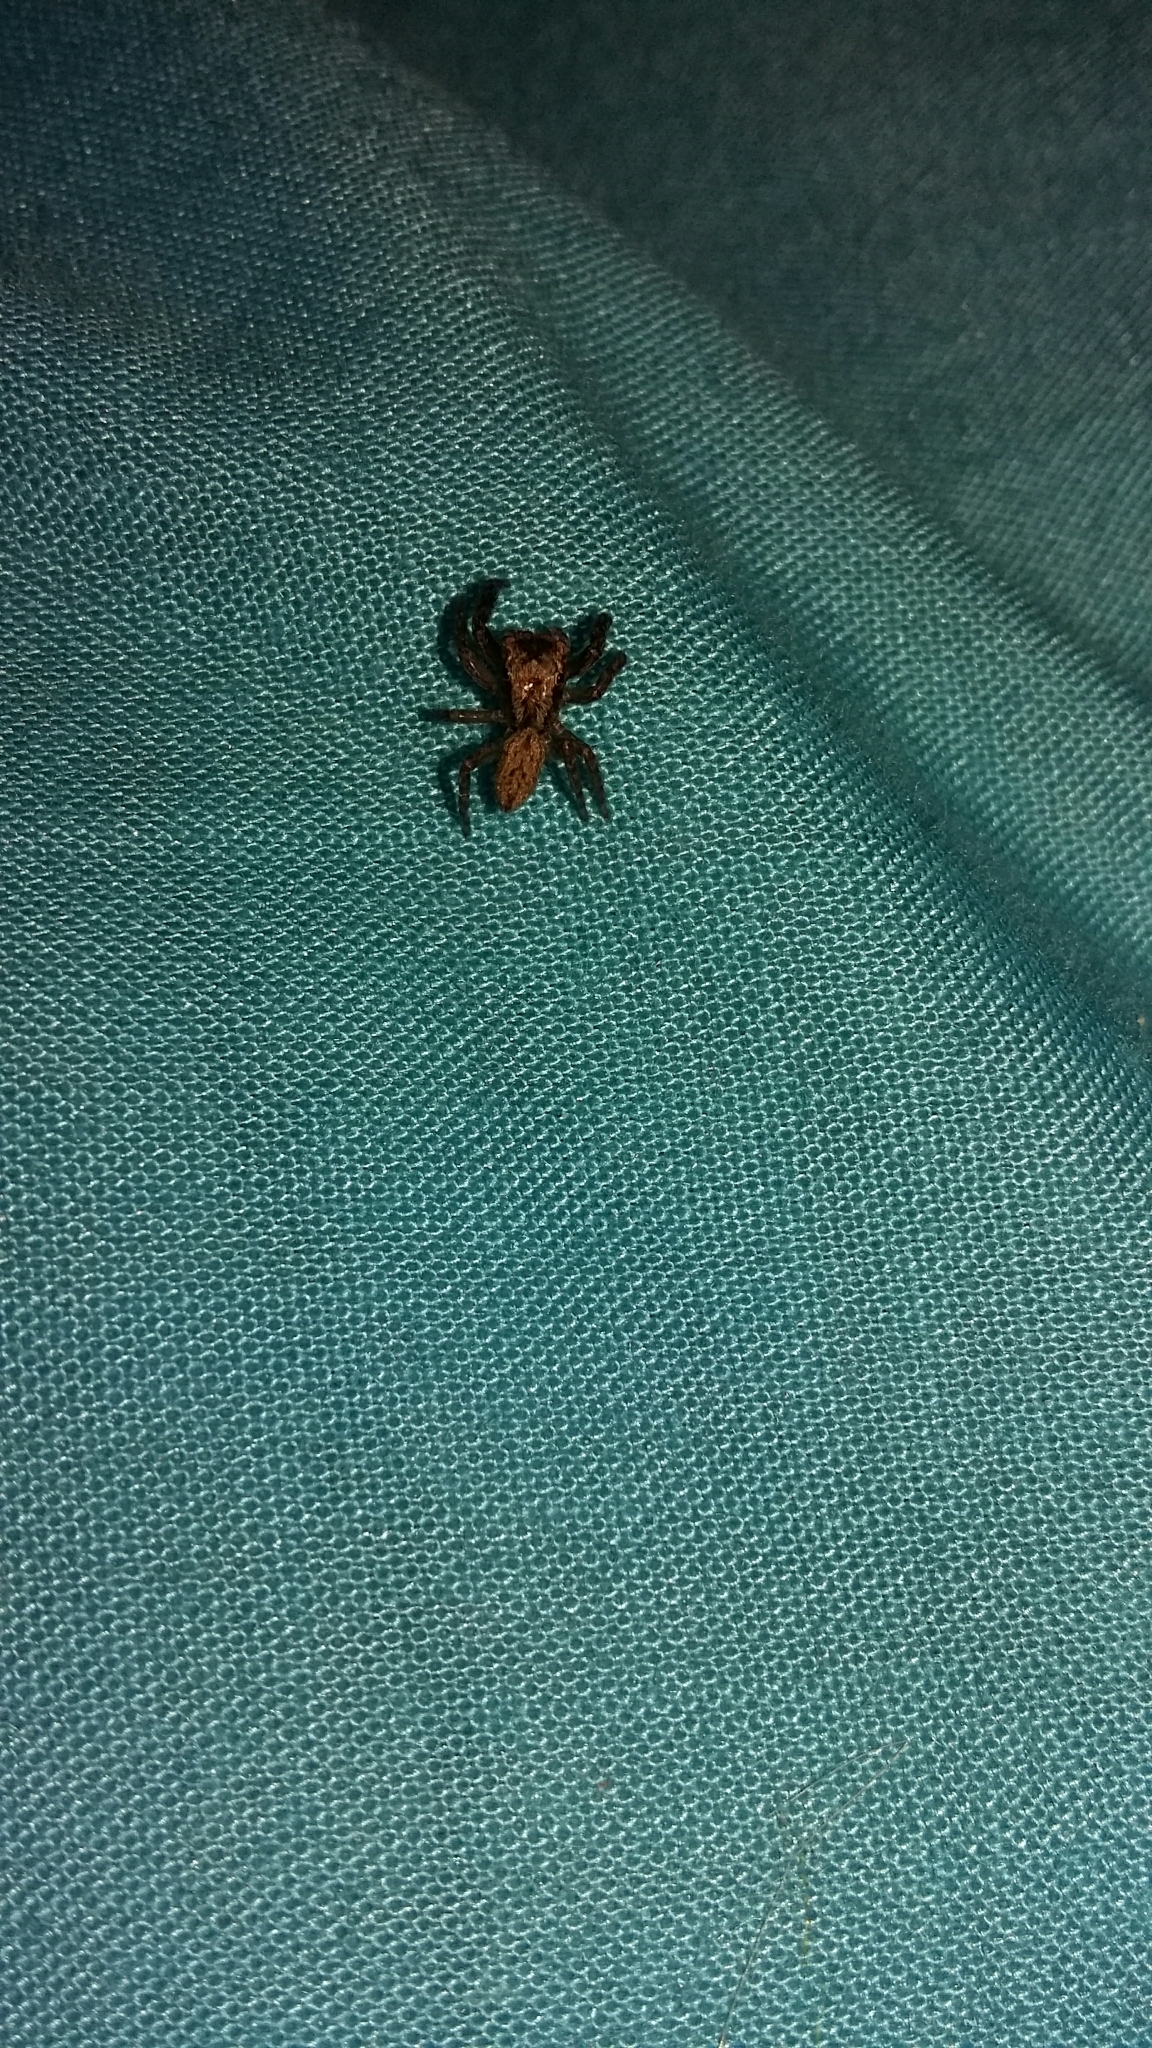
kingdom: Animalia
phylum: Arthropoda
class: Arachnida
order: Araneae
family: Salticidae
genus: Trite
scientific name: Trite auricoma
